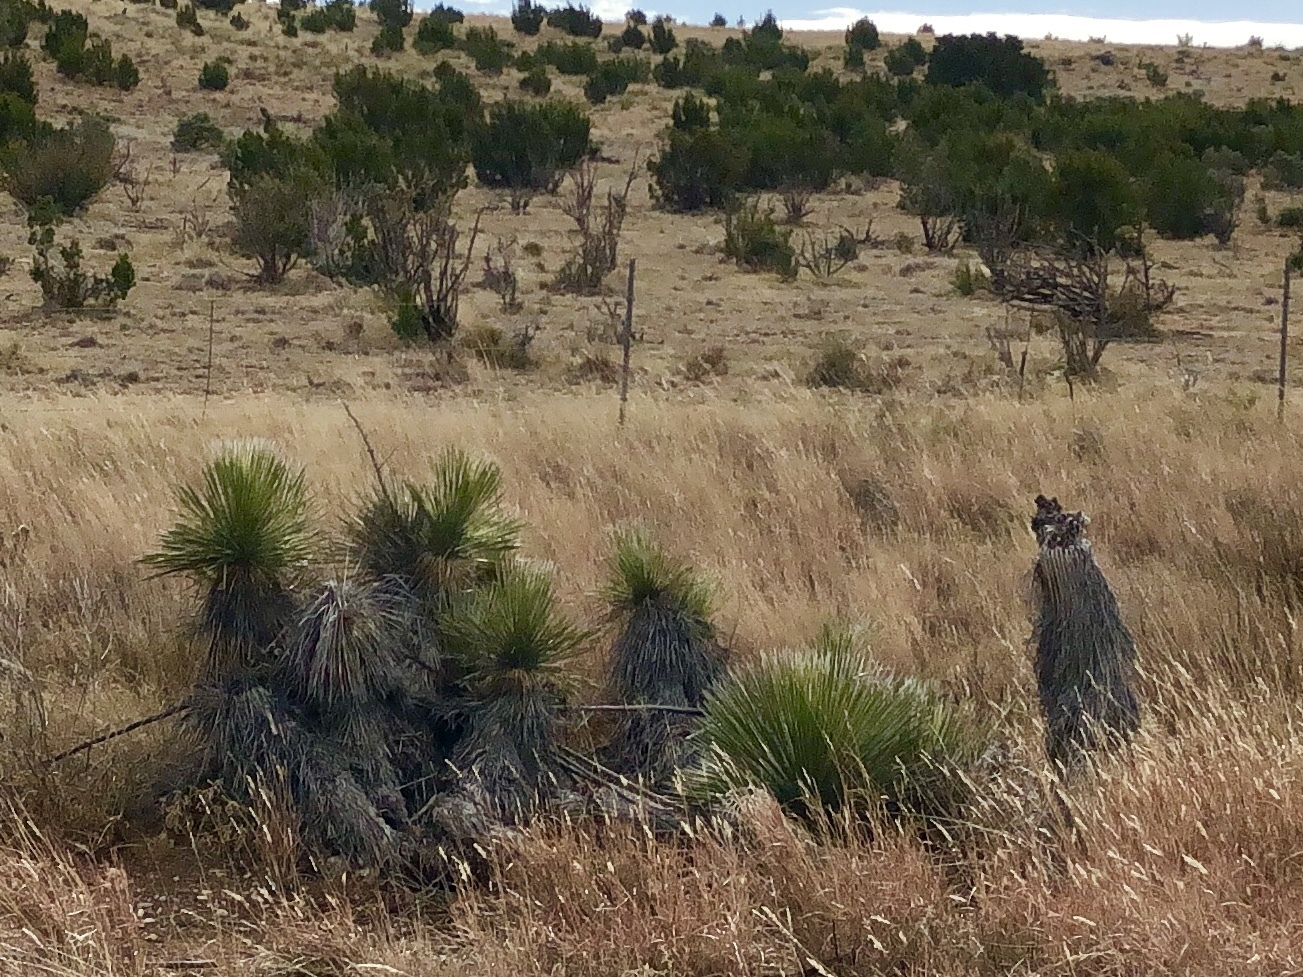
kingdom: Plantae
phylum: Tracheophyta
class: Liliopsida
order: Asparagales
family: Asparagaceae
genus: Yucca
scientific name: Yucca elata
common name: Palmella
